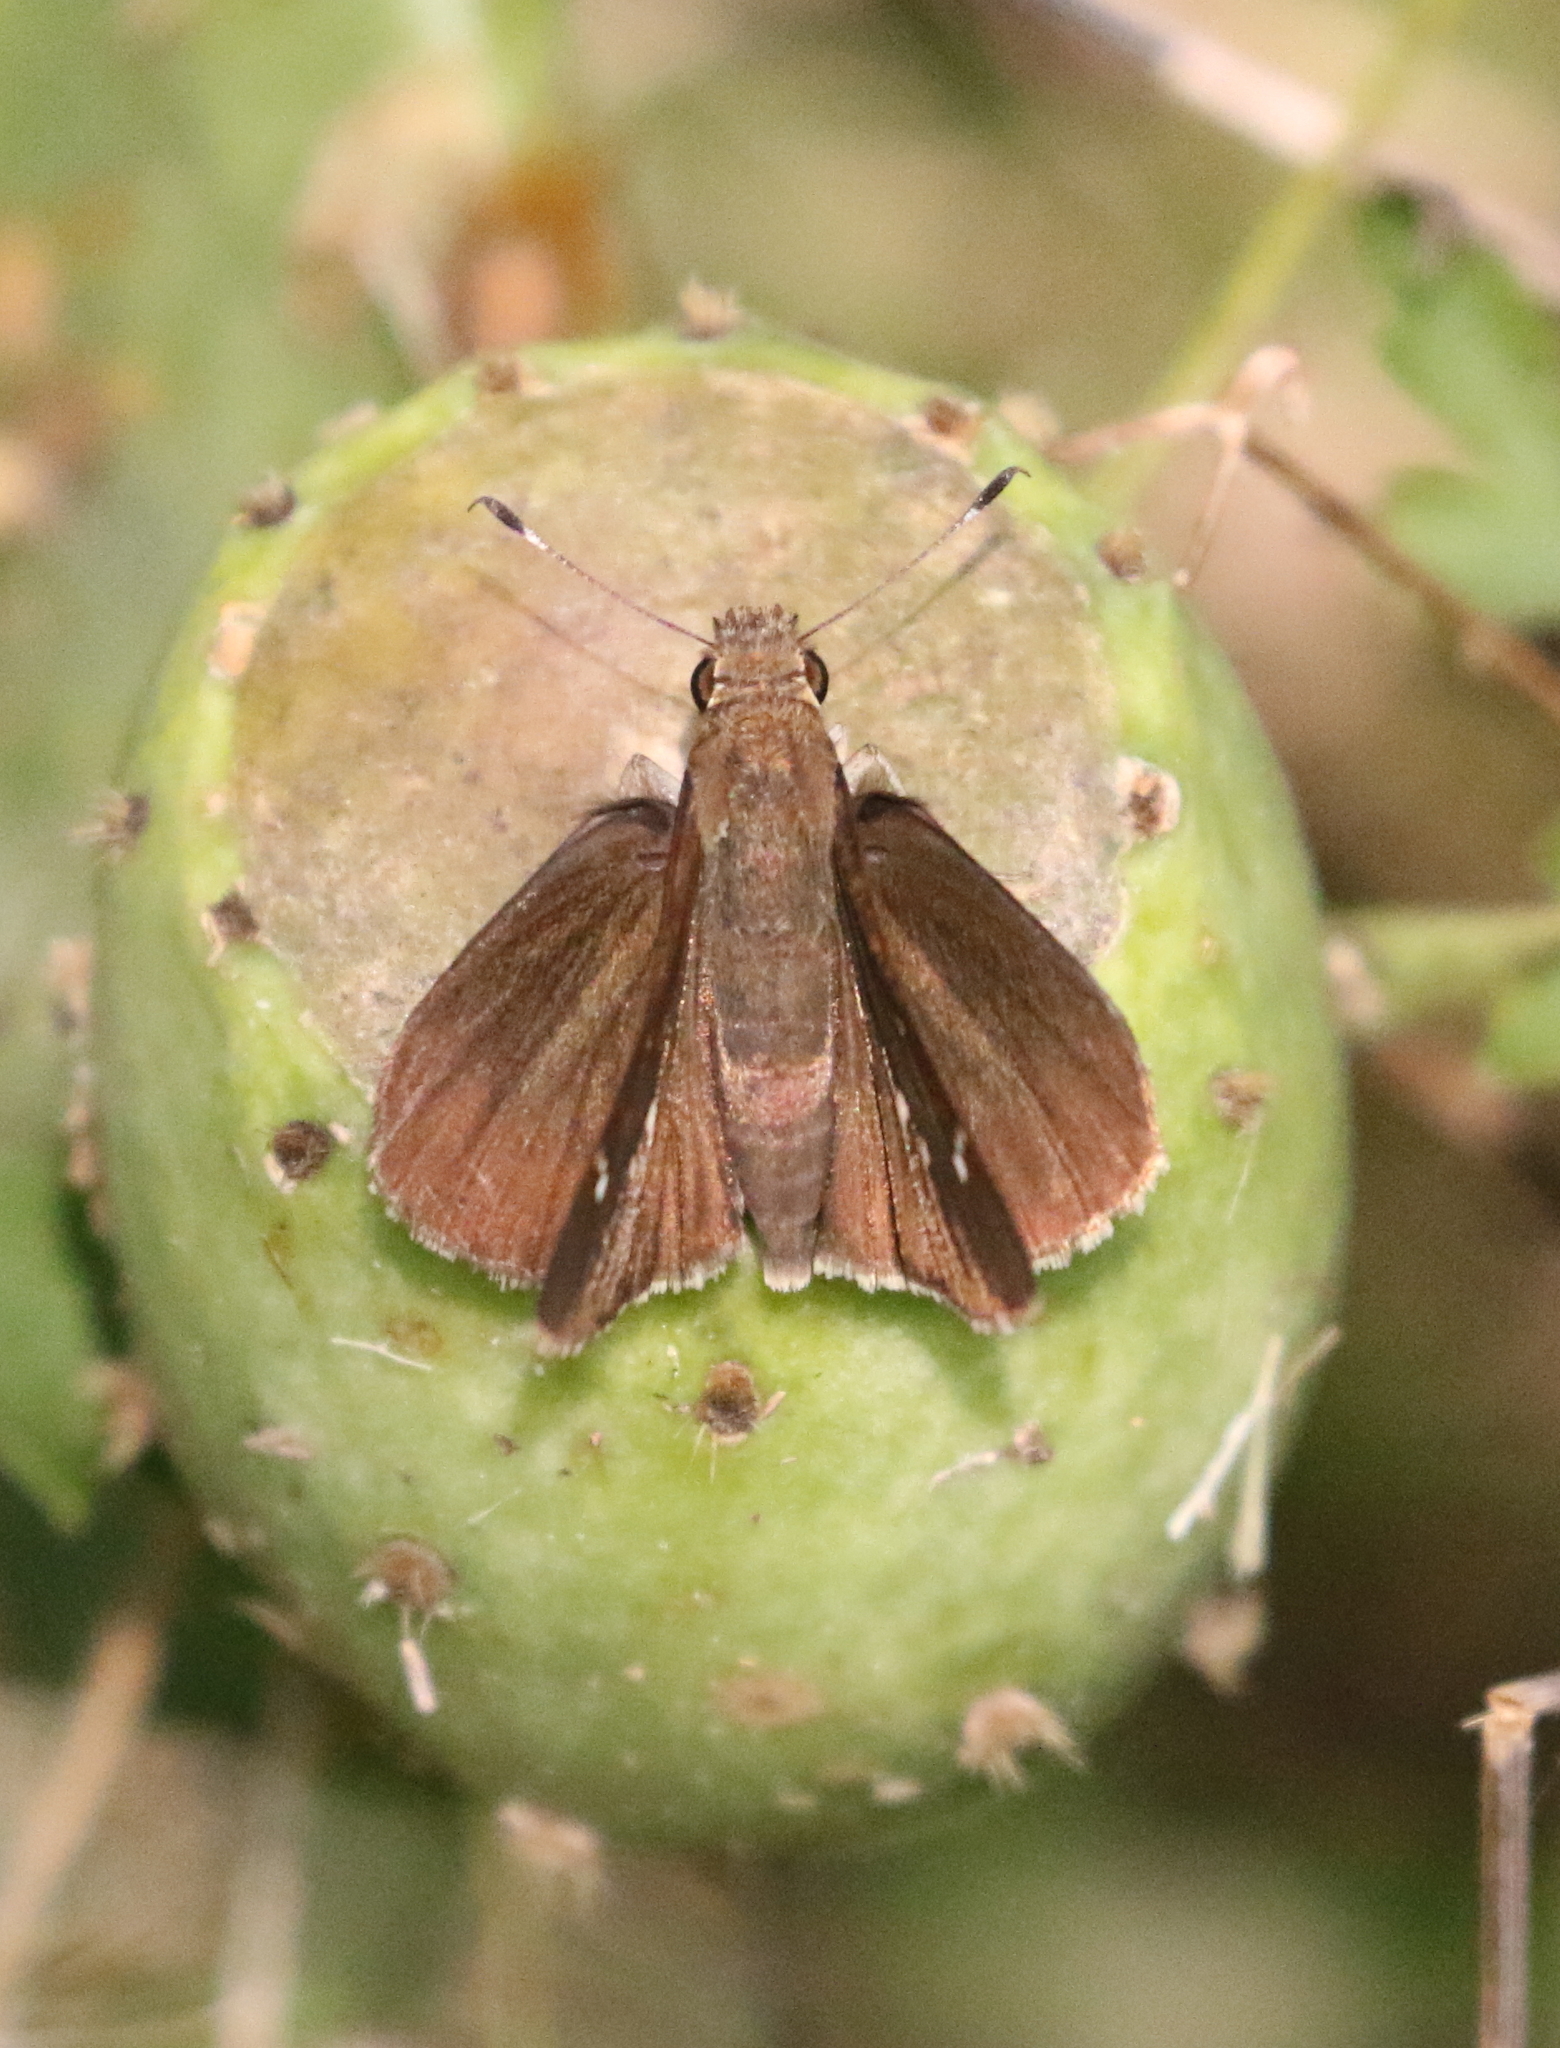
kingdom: Animalia
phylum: Arthropoda
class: Insecta
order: Lepidoptera
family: Hesperiidae
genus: Lerema
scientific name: Lerema accius
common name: Clouded skipper
